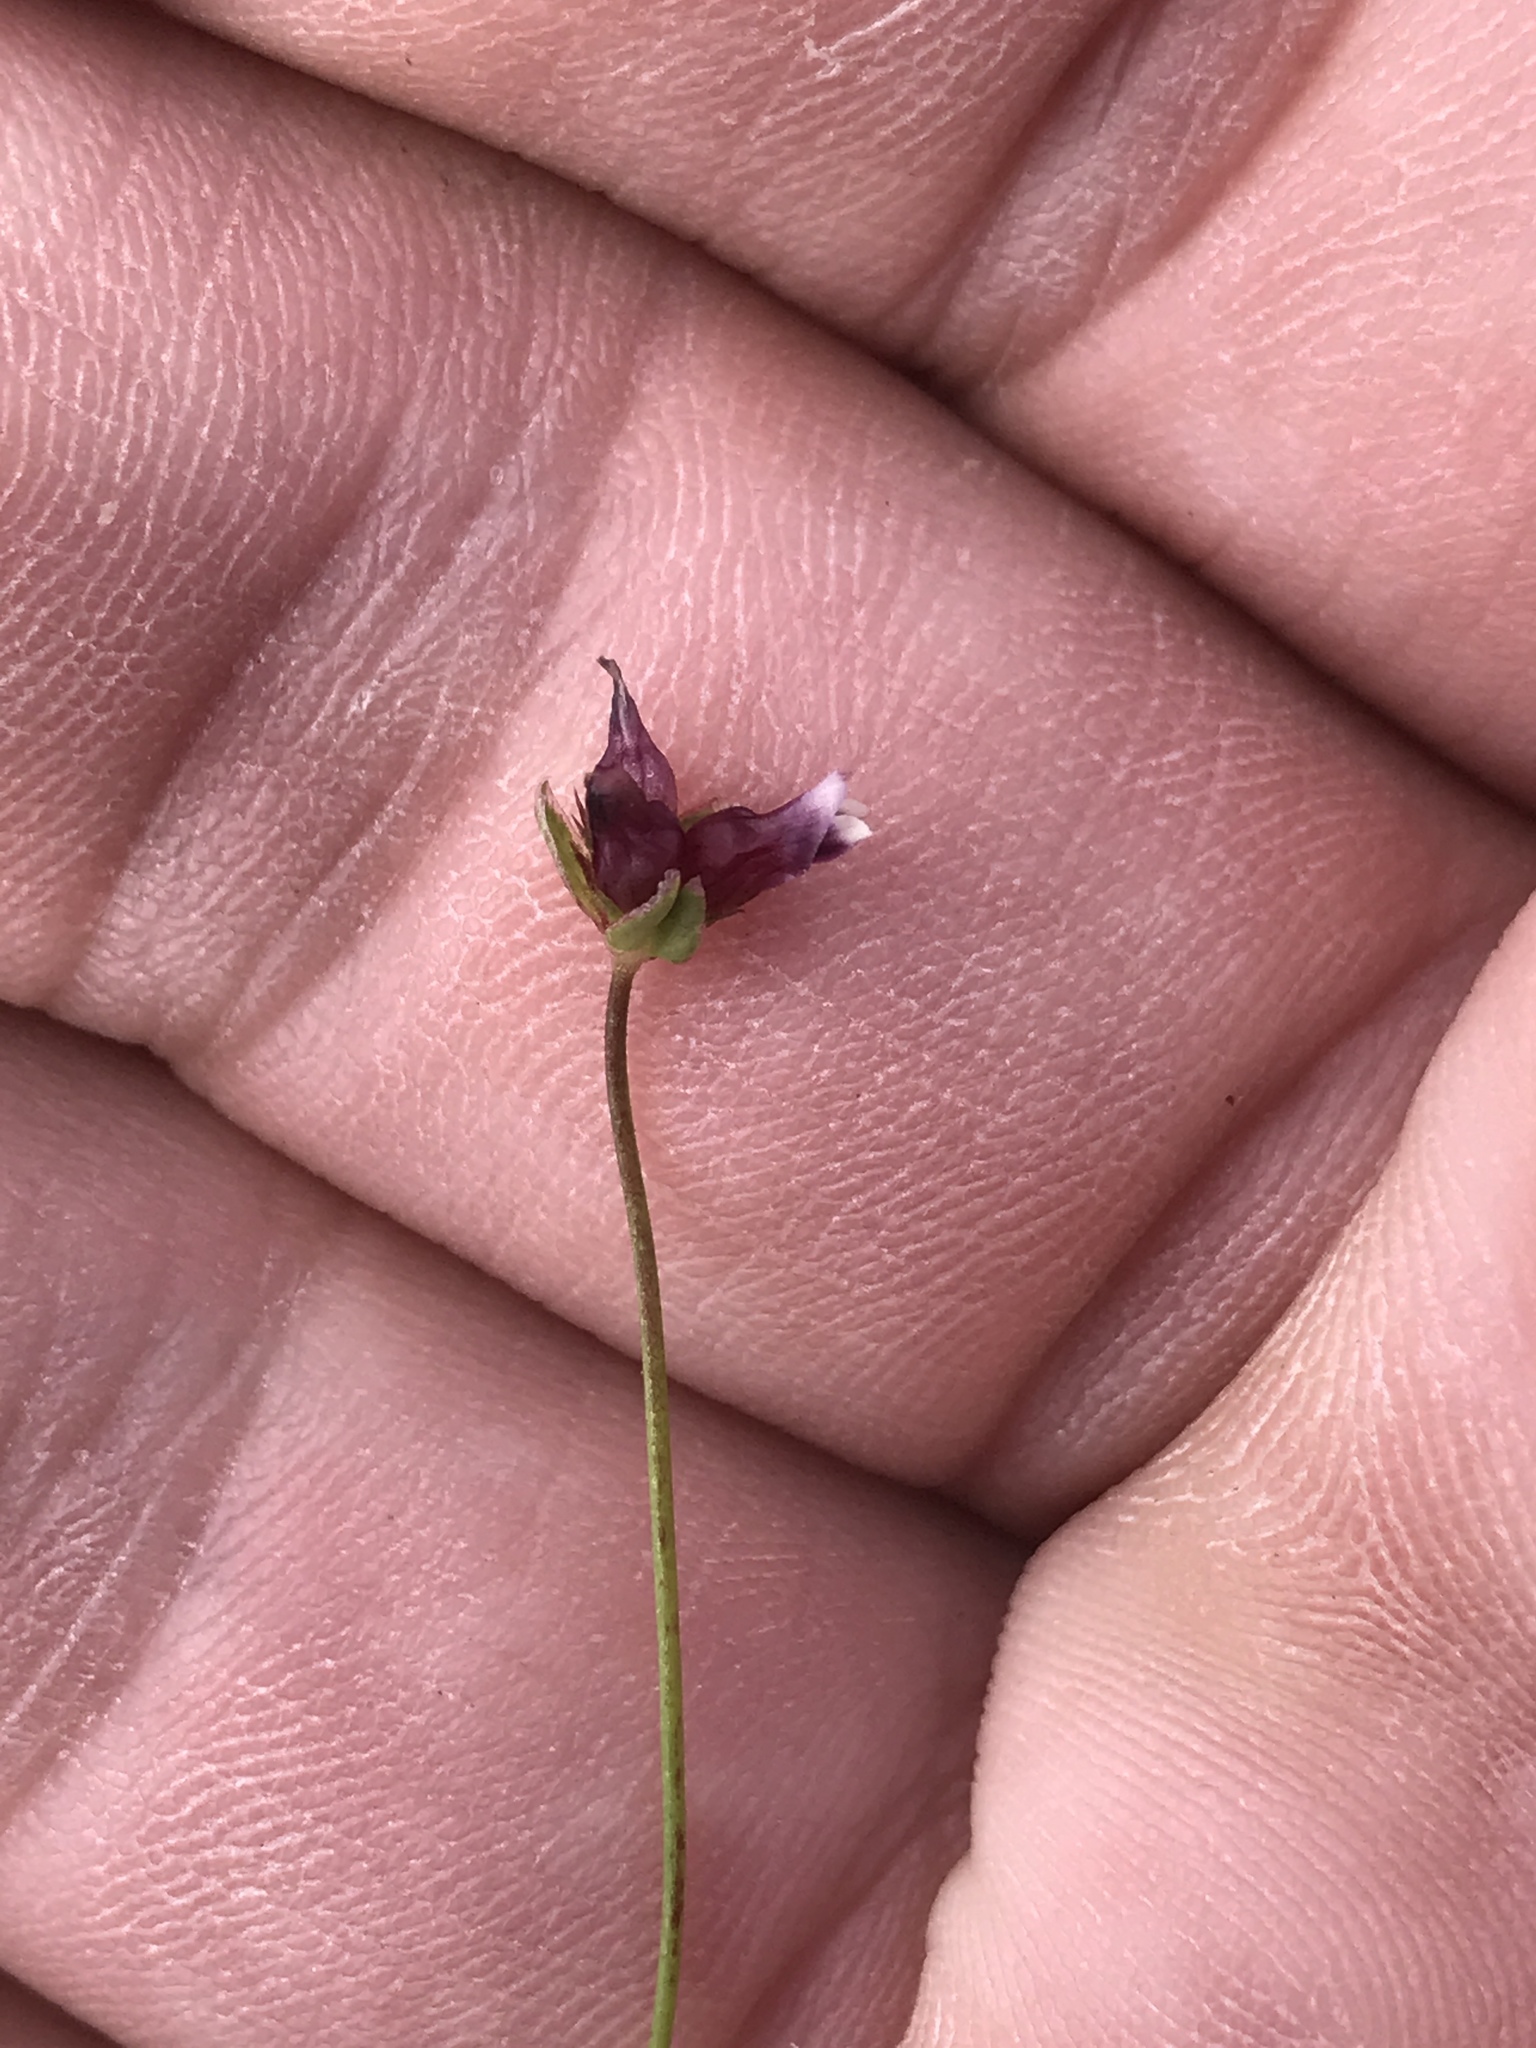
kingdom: Plantae
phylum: Tracheophyta
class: Magnoliopsida
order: Fabales
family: Fabaceae
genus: Trifolium
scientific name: Trifolium depauperatum
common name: Poverty clover
